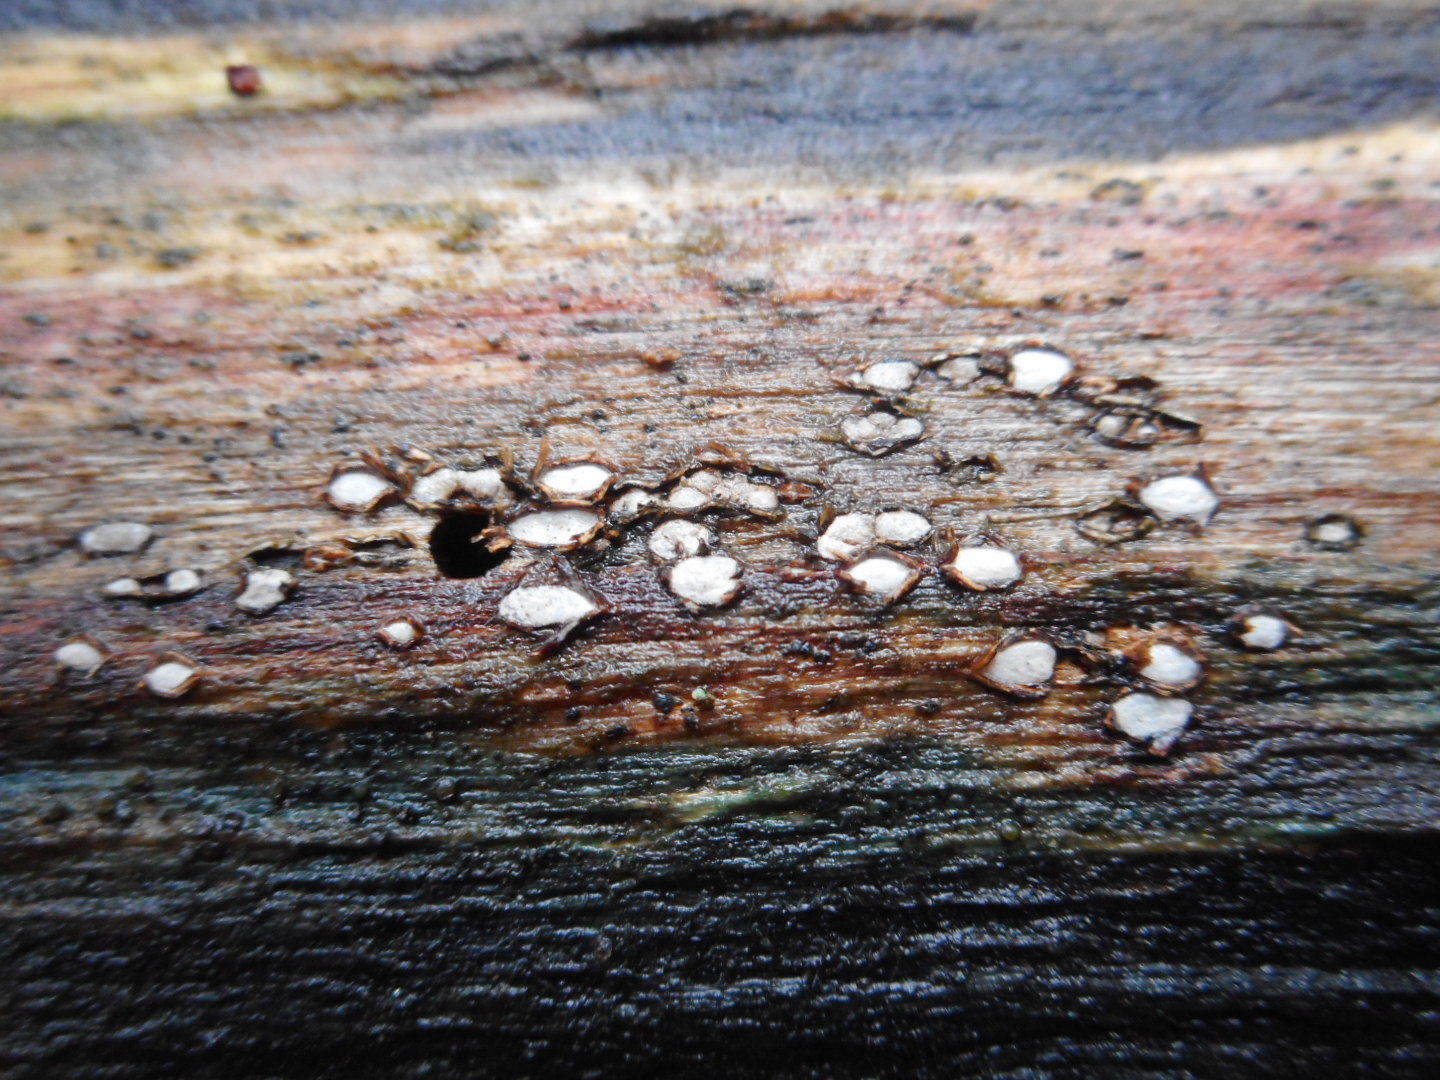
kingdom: Fungi
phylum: Ascomycota
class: Leotiomycetes
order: Chaetomellales
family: Marthamycetaceae
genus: Propolis
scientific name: Propolis farinosa
